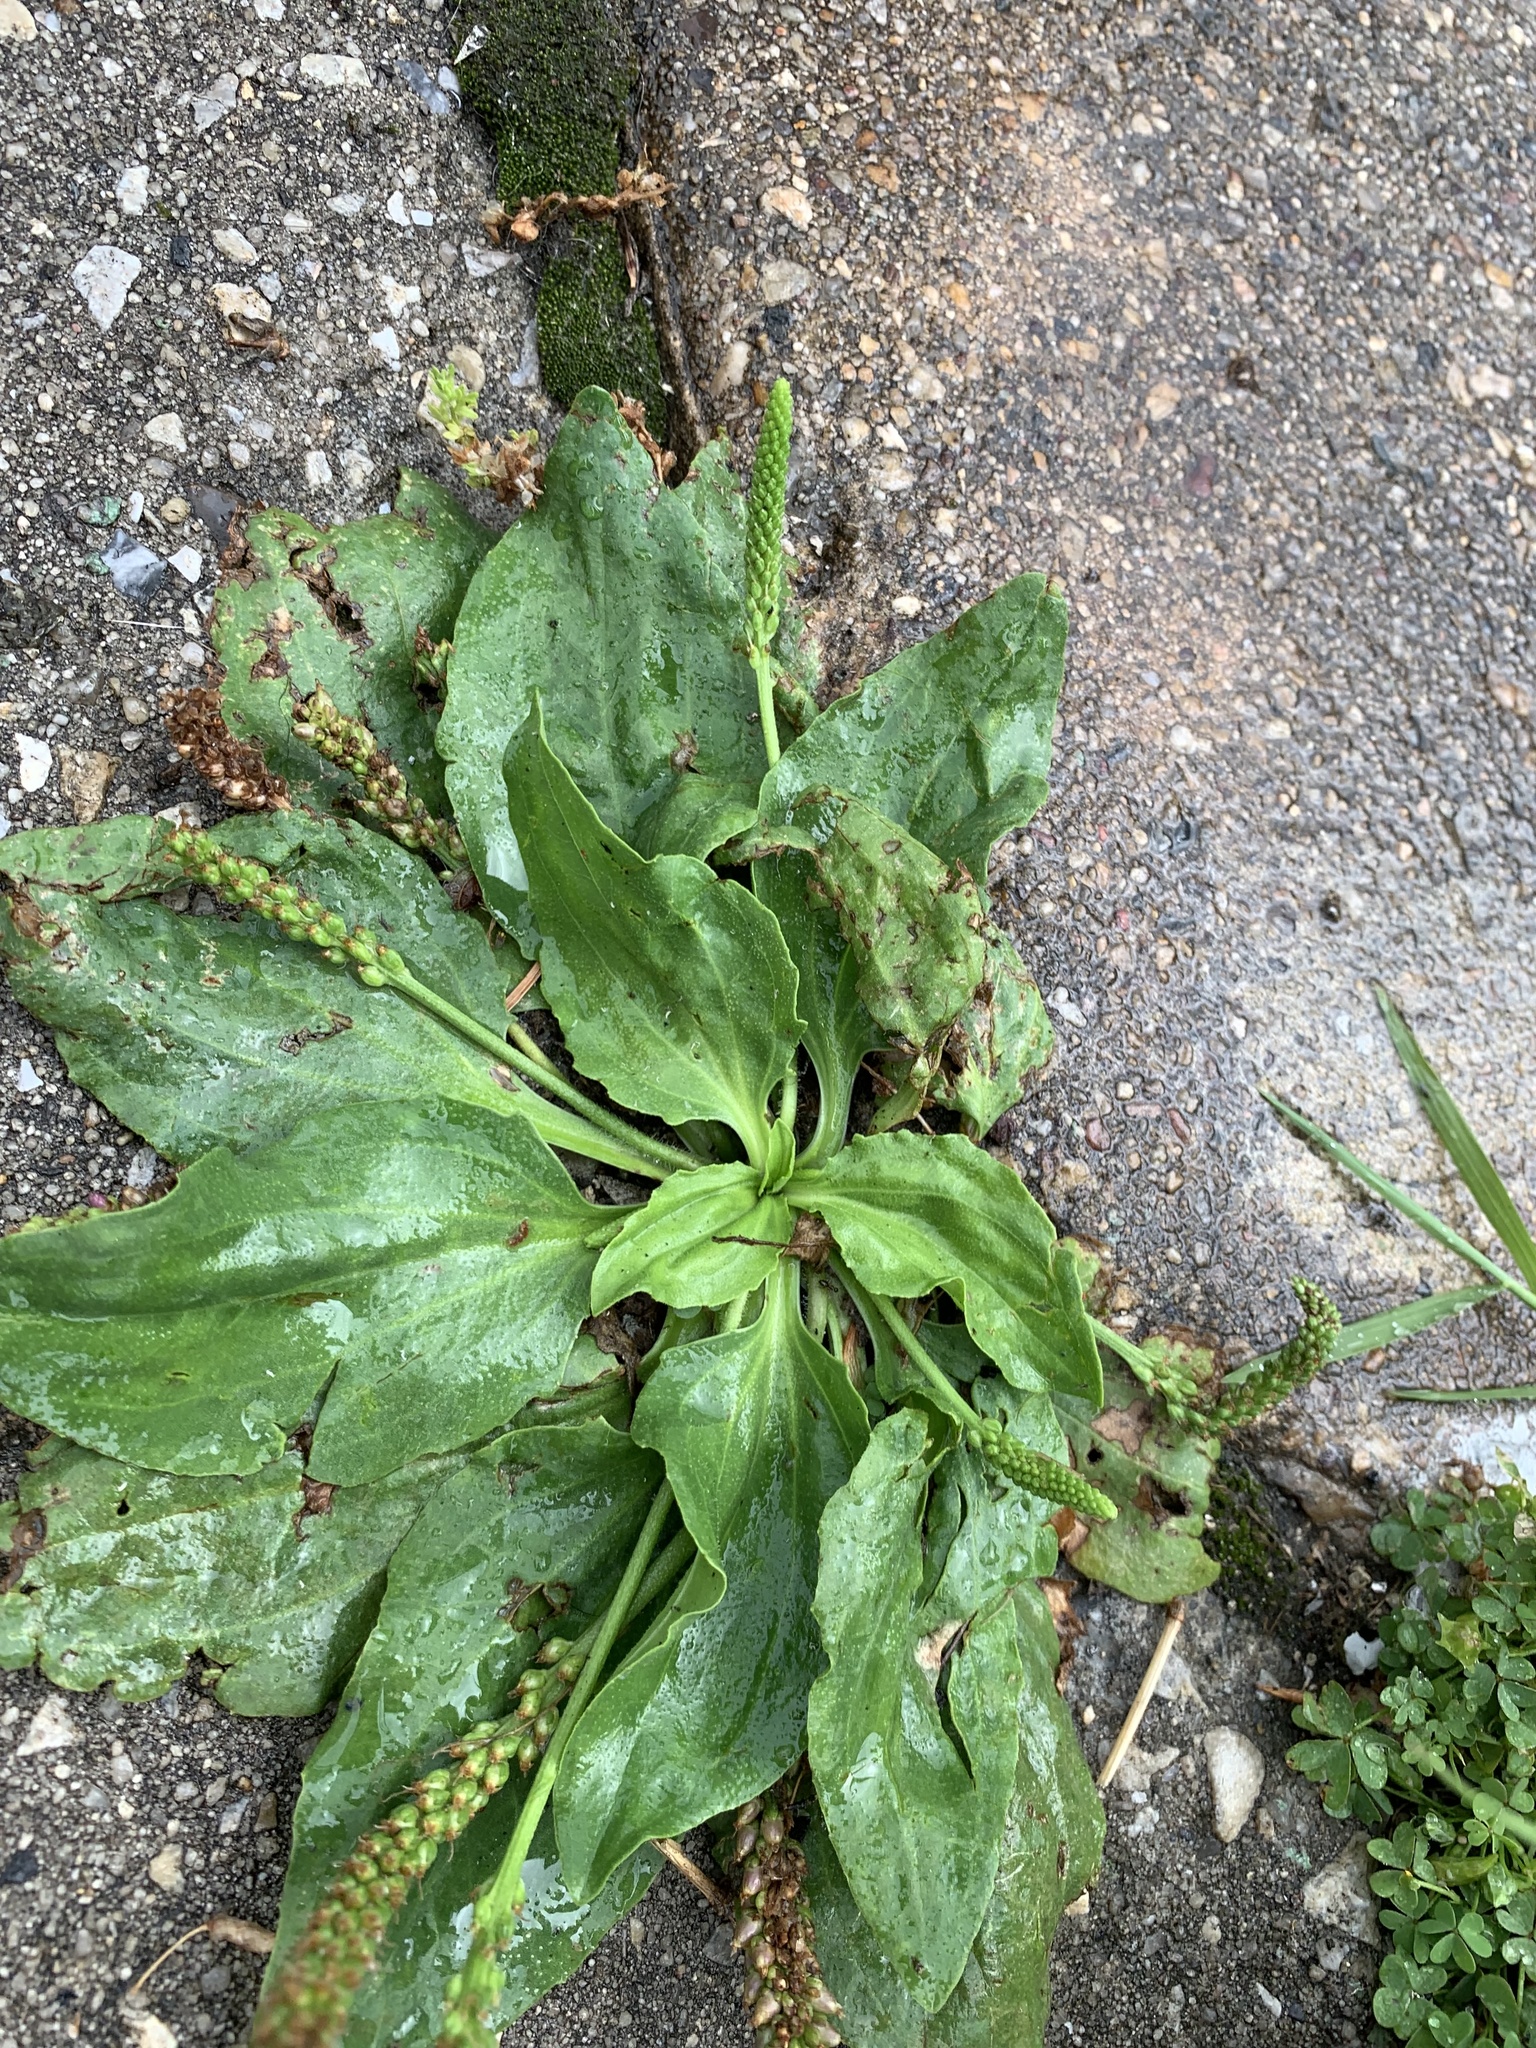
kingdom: Plantae
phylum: Tracheophyta
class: Magnoliopsida
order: Lamiales
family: Plantaginaceae
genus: Plantago
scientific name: Plantago major
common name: Common plantain
